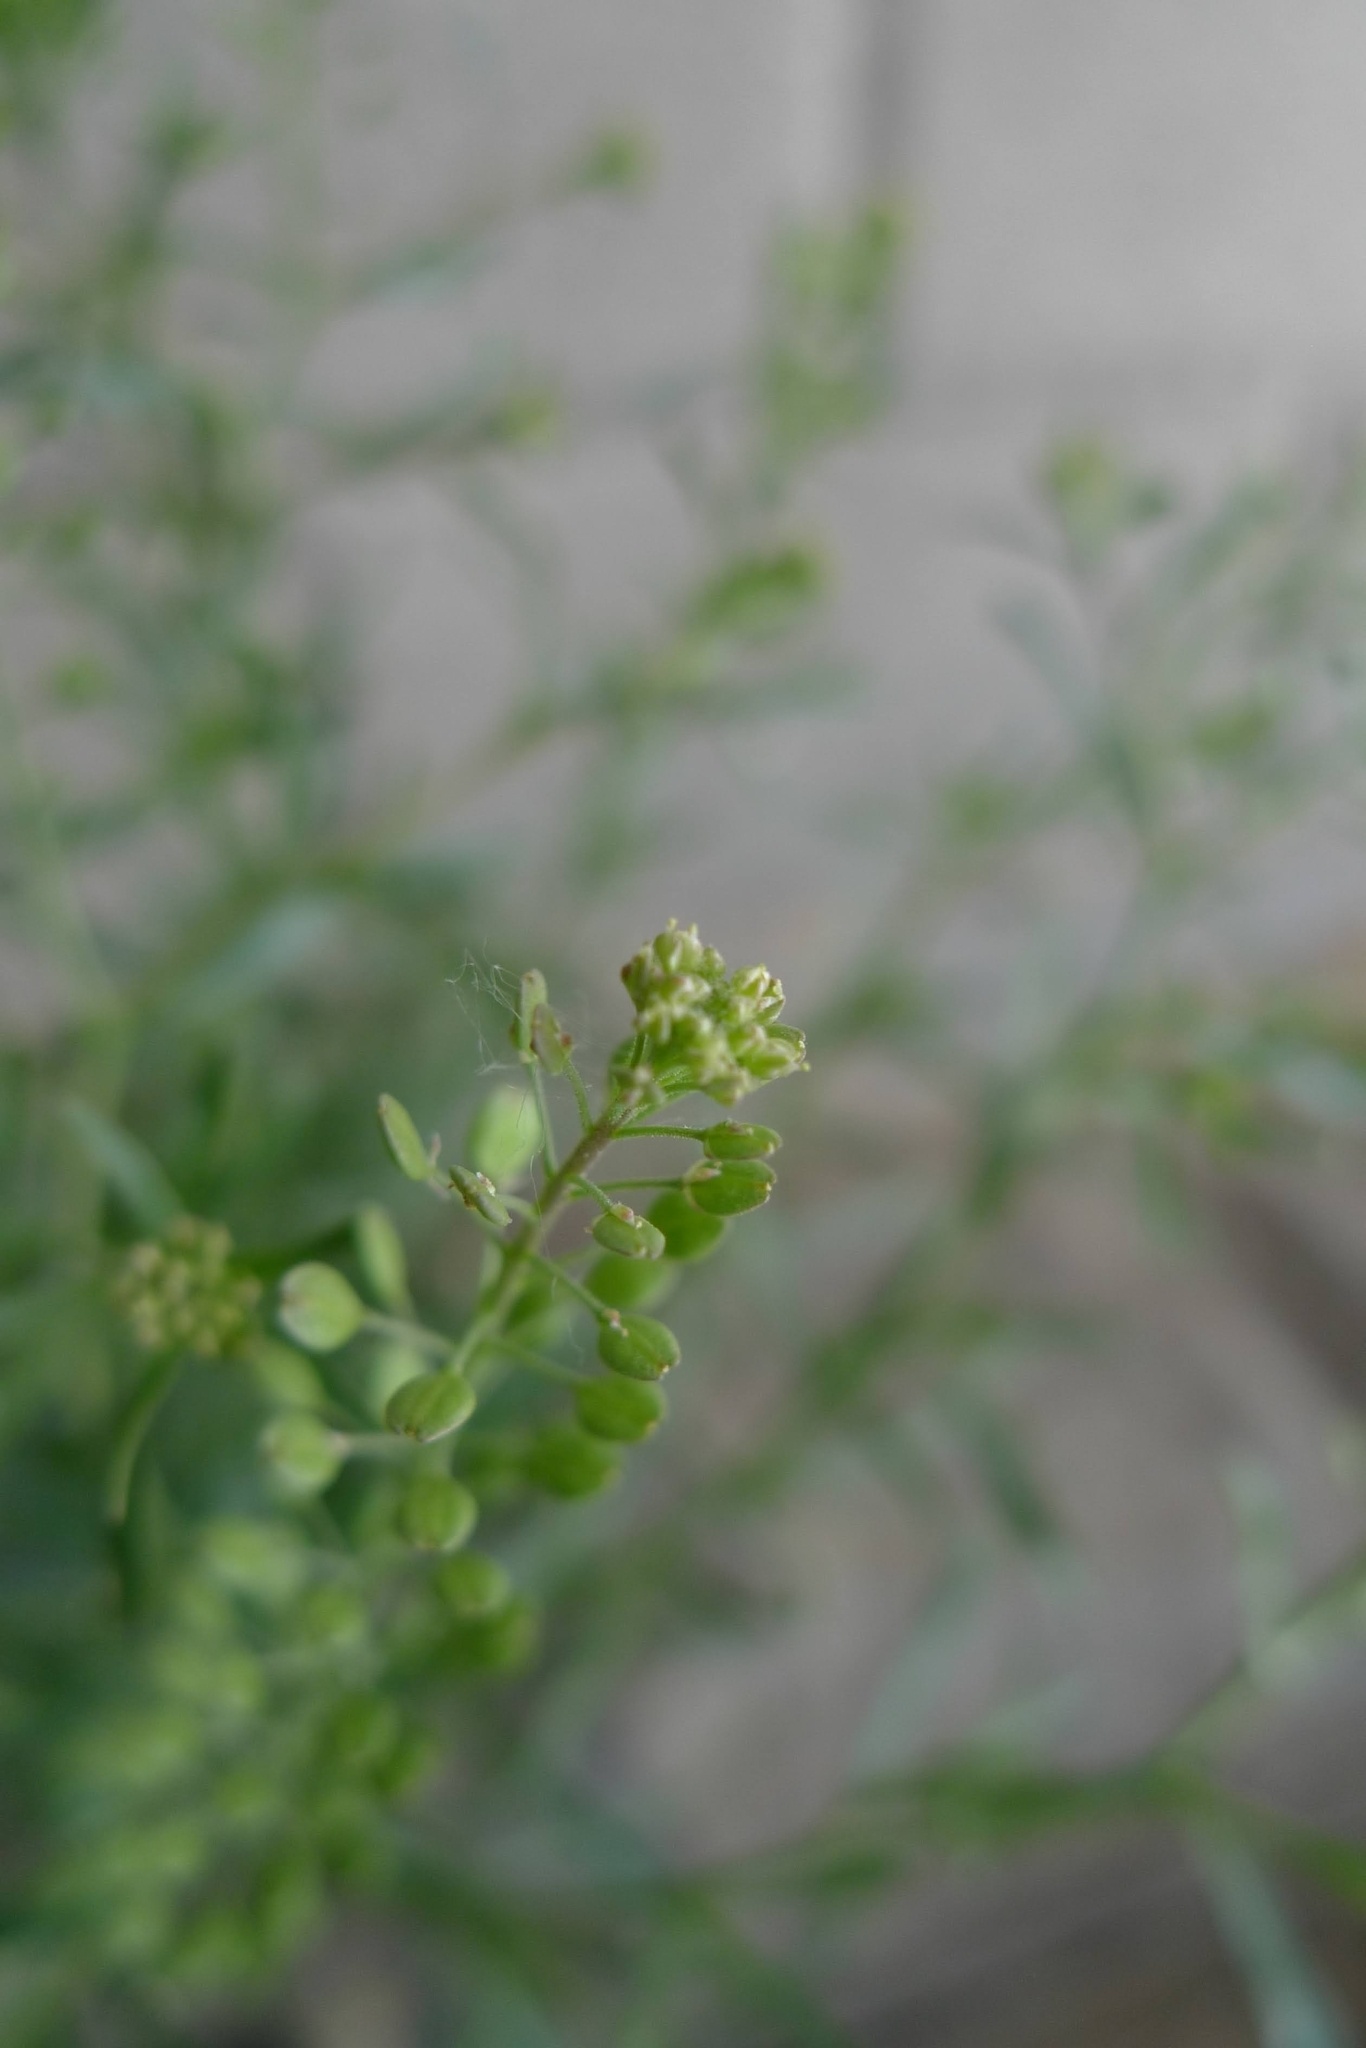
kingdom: Plantae
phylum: Tracheophyta
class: Magnoliopsida
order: Brassicales
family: Brassicaceae
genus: Lepidium
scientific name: Lepidium ruderale
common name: Narrow-leaved pepperwort
